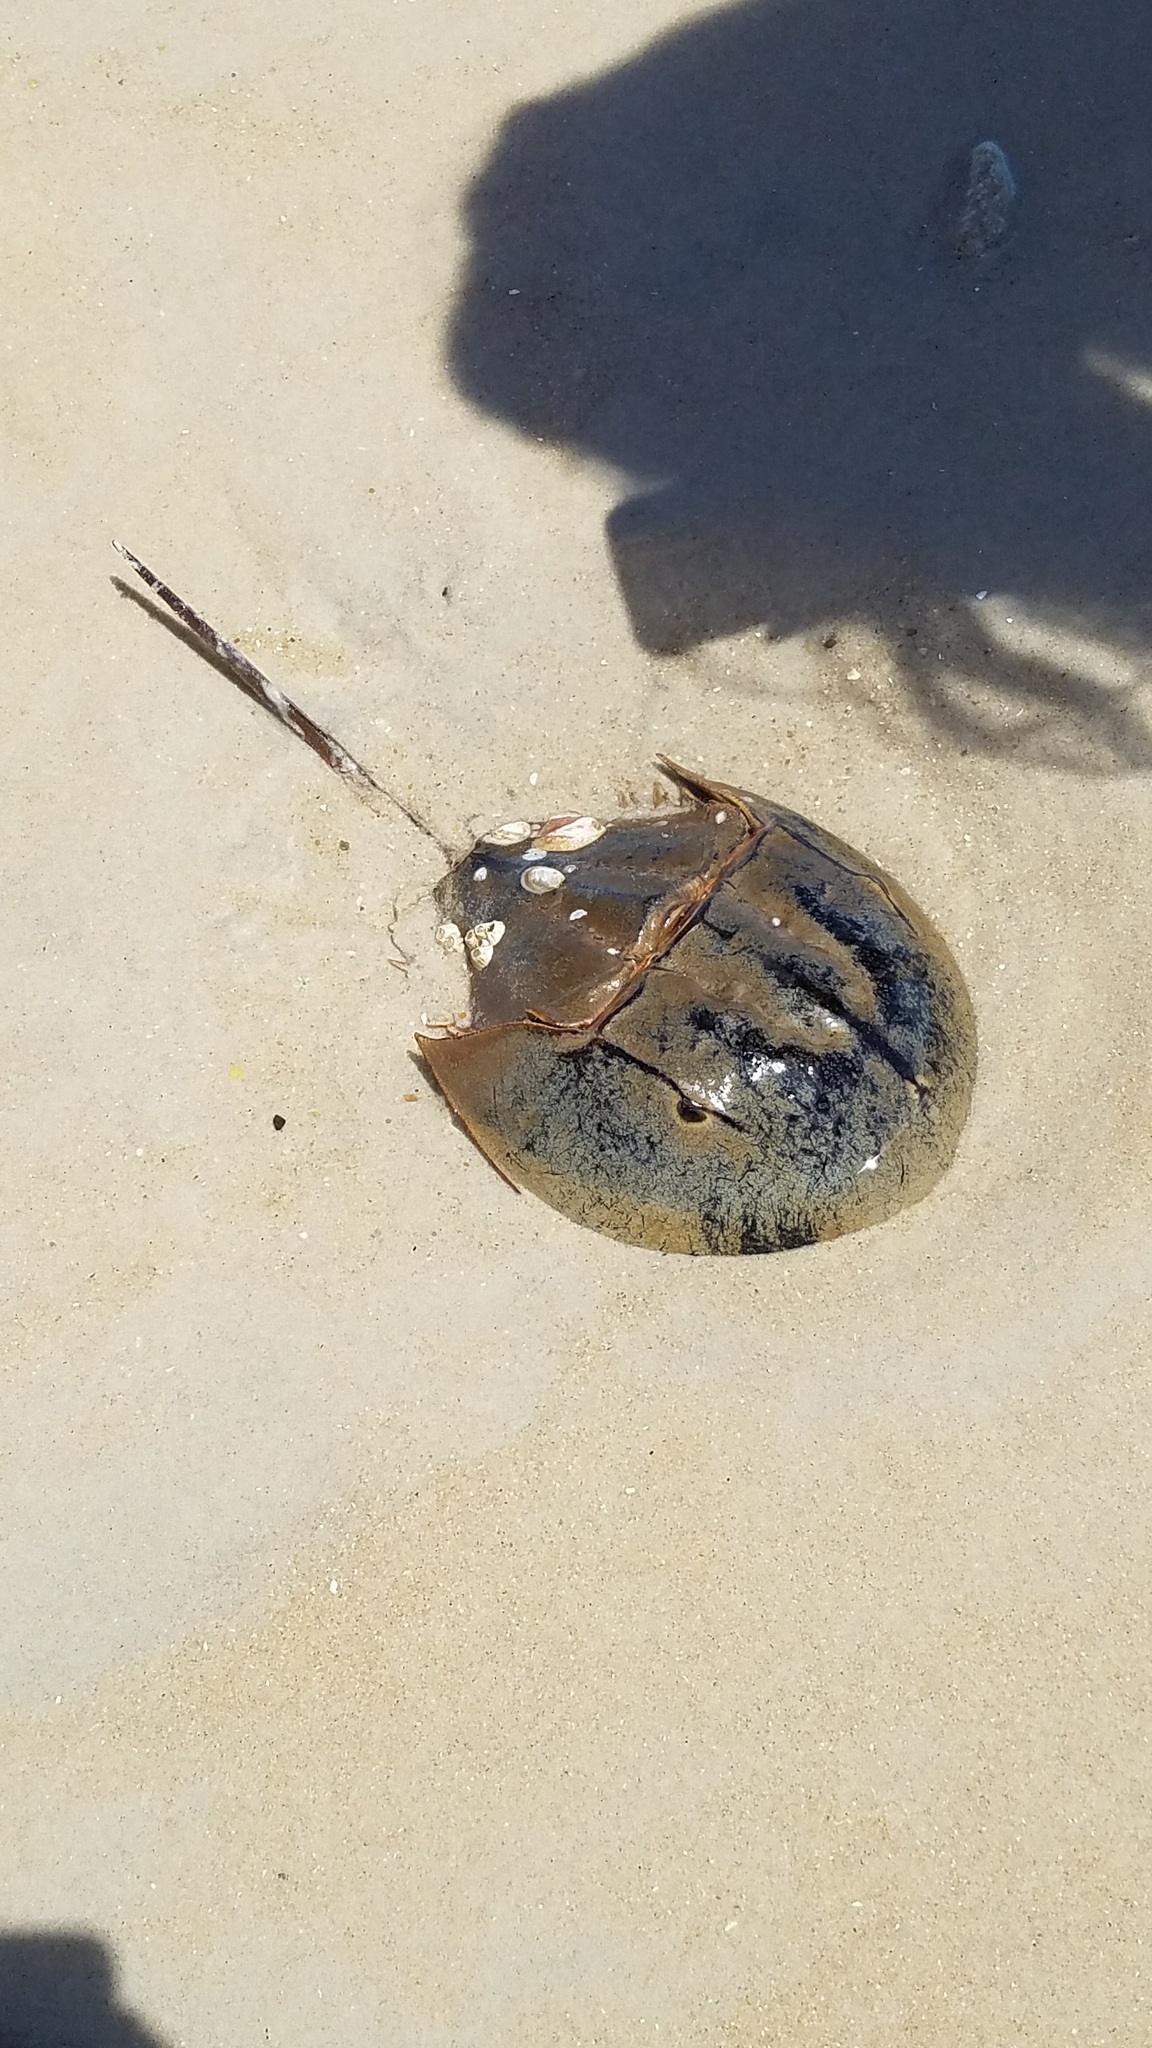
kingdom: Animalia
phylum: Arthropoda
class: Merostomata
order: Xiphosurida
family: Limulidae
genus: Limulus
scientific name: Limulus polyphemus
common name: Horseshoe crab
